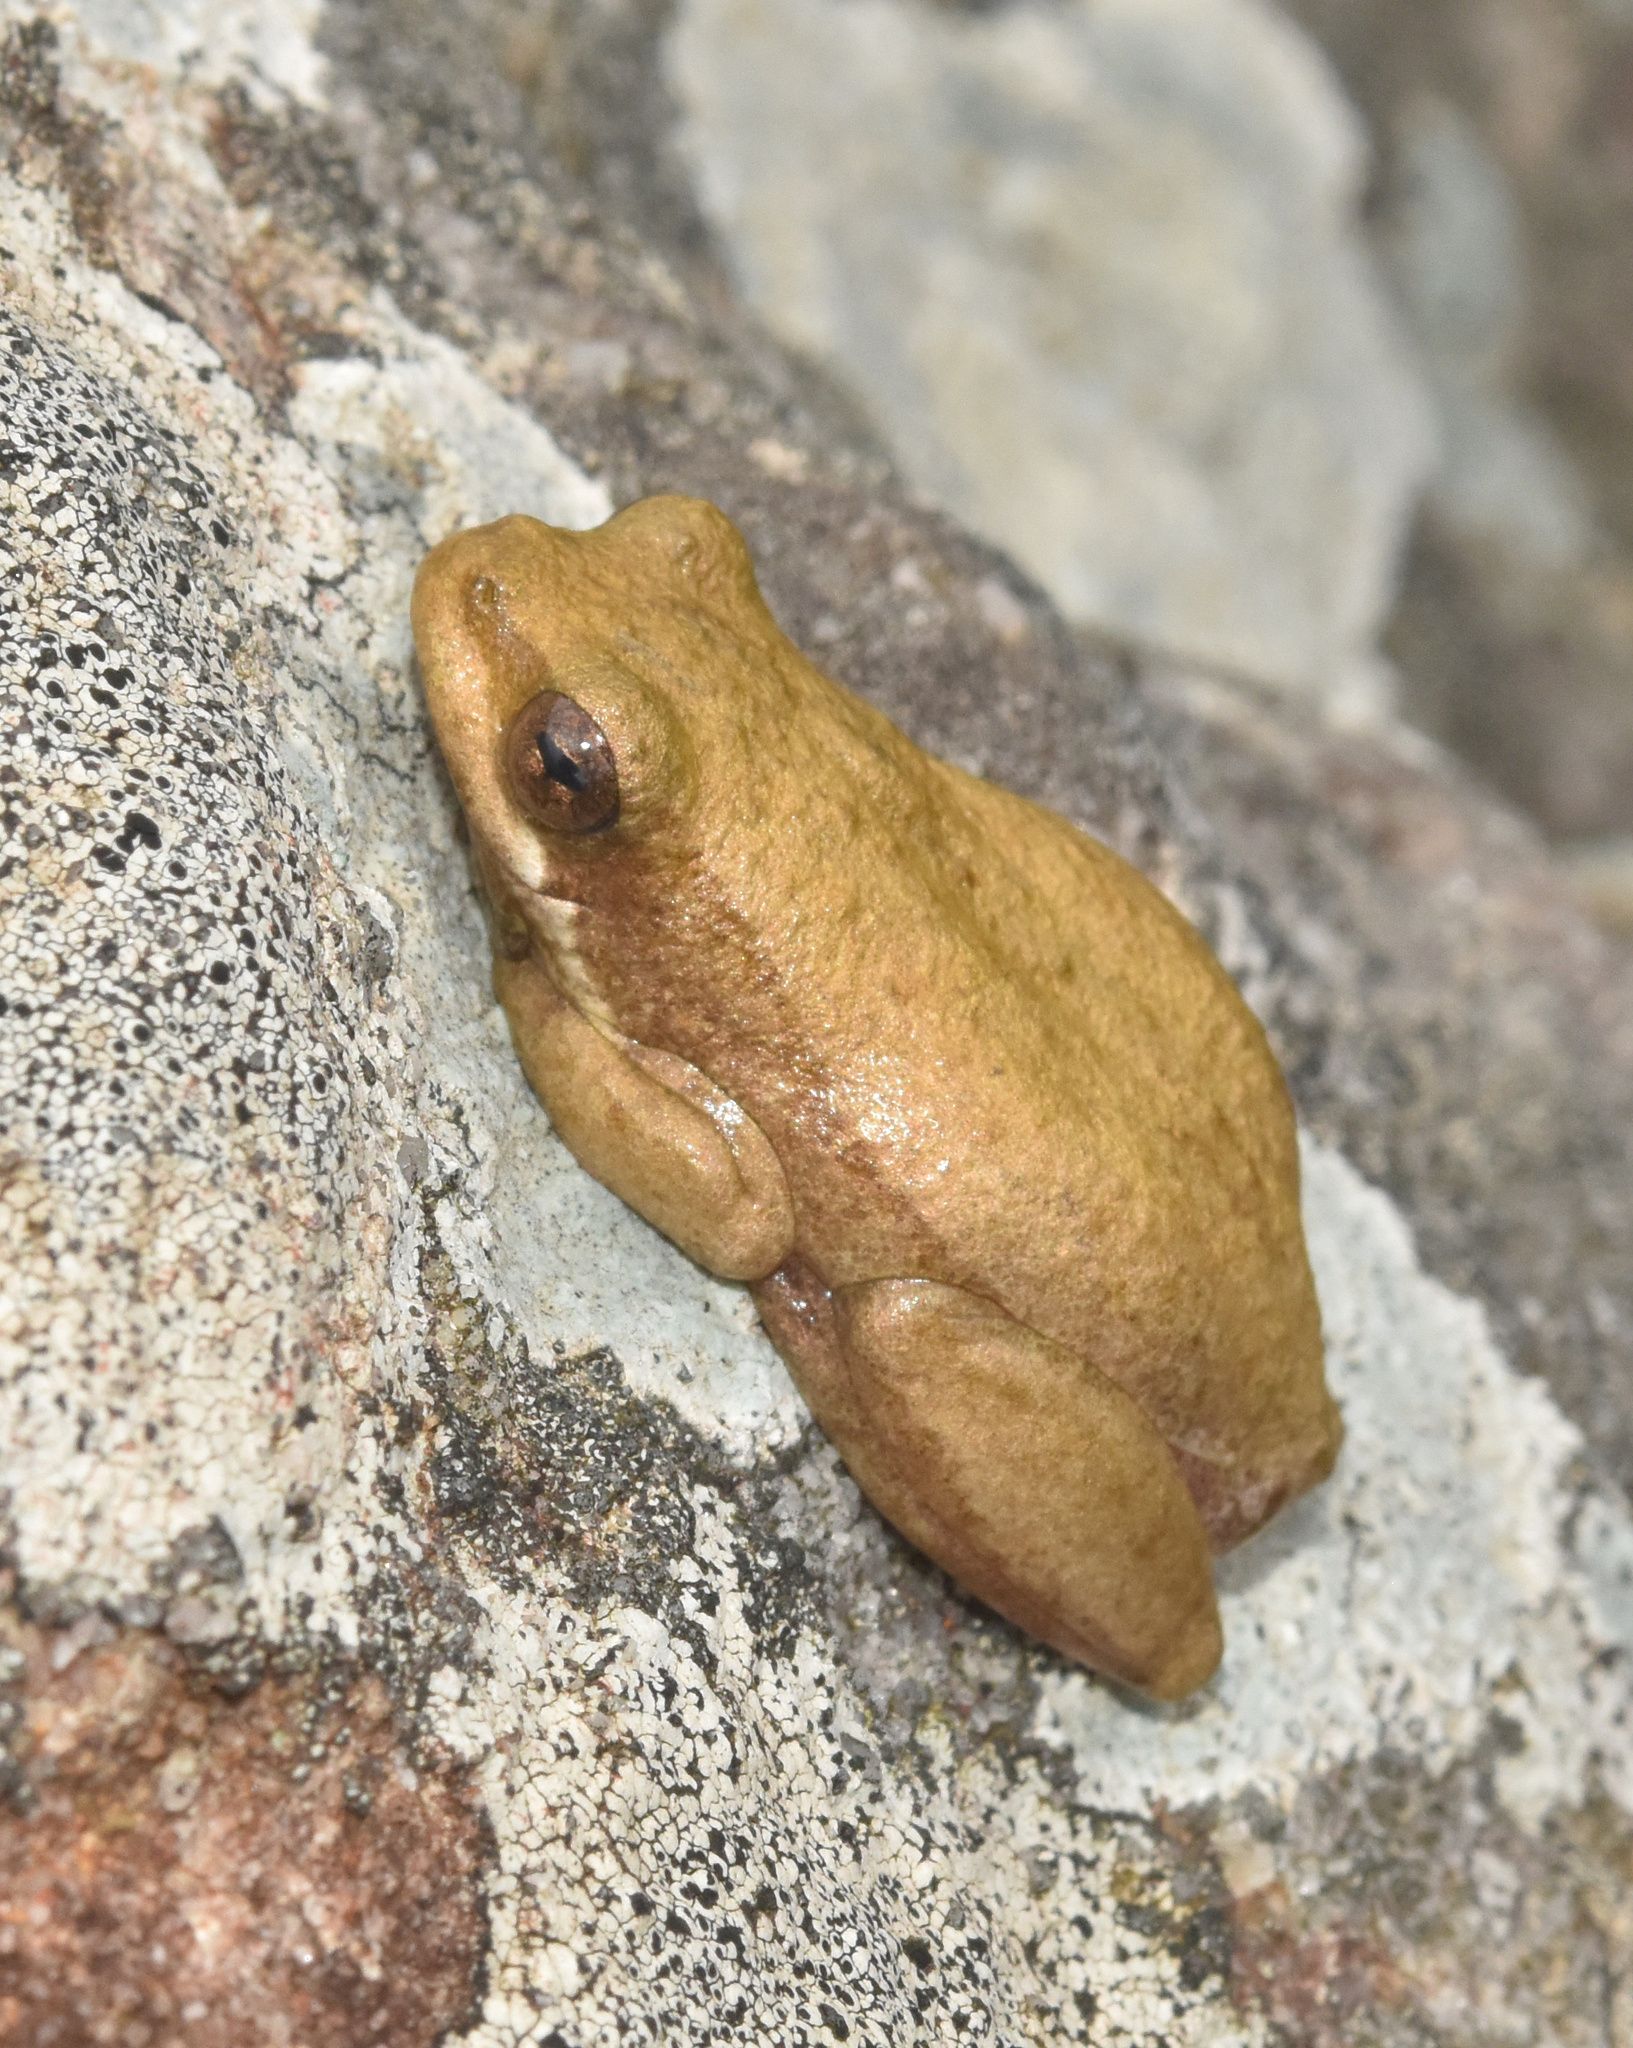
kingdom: Animalia
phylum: Chordata
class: Amphibia
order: Anura
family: Hyperoliidae
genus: Hyperolius
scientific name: Hyperolius marmoratus
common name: Painted reed frog
